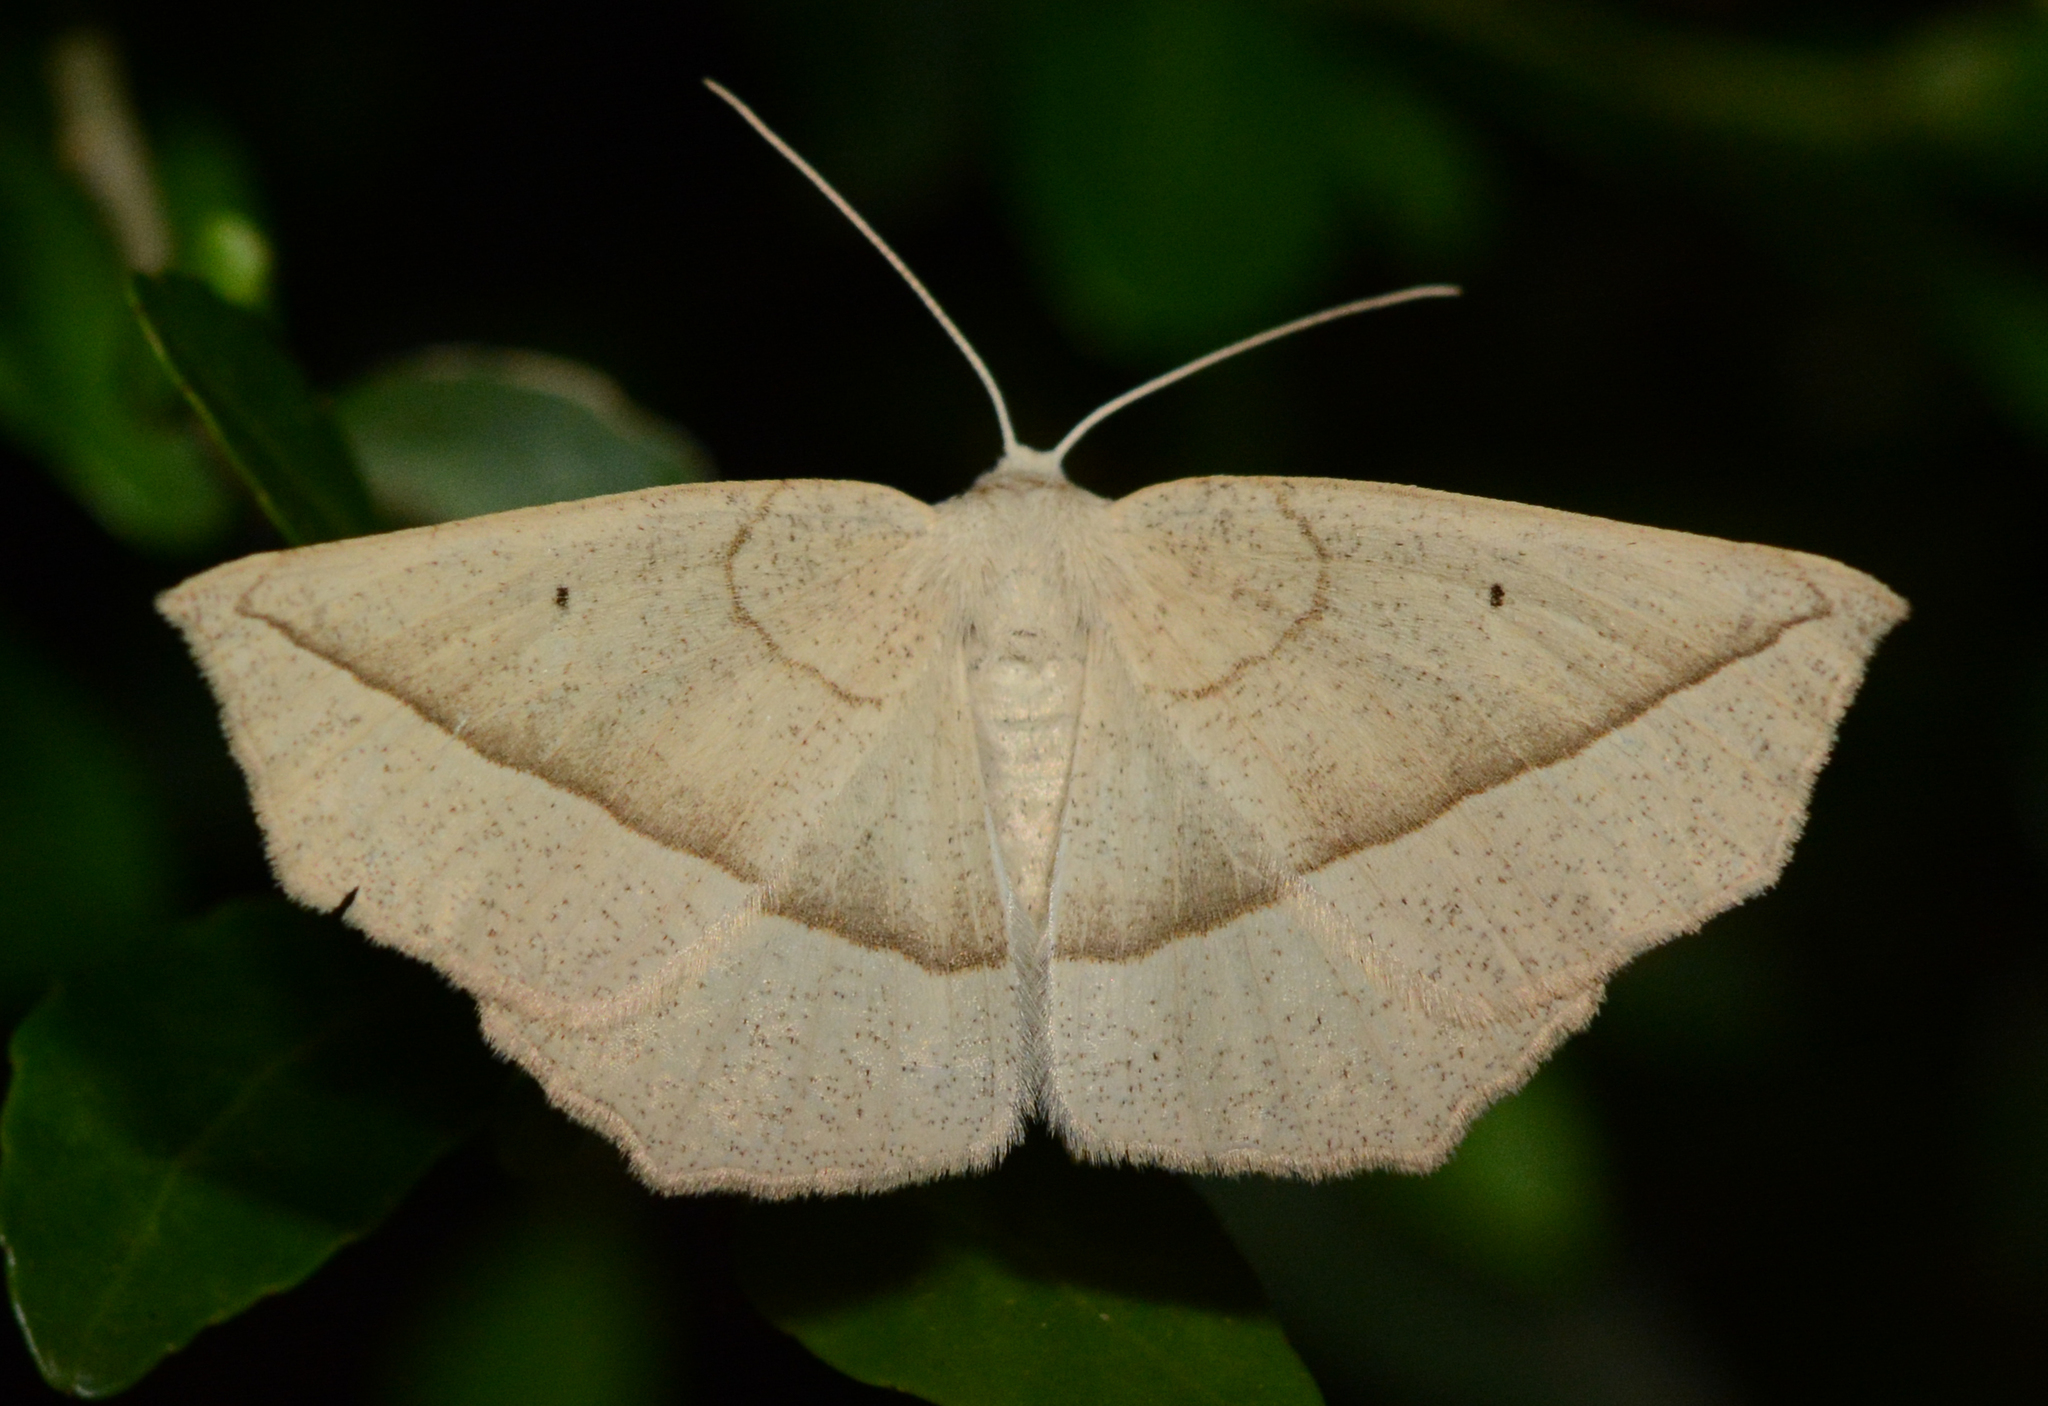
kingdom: Animalia
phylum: Arthropoda
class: Insecta
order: Lepidoptera
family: Geometridae
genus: Eusarca
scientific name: Eusarca confusaria
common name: Confused eusarca
